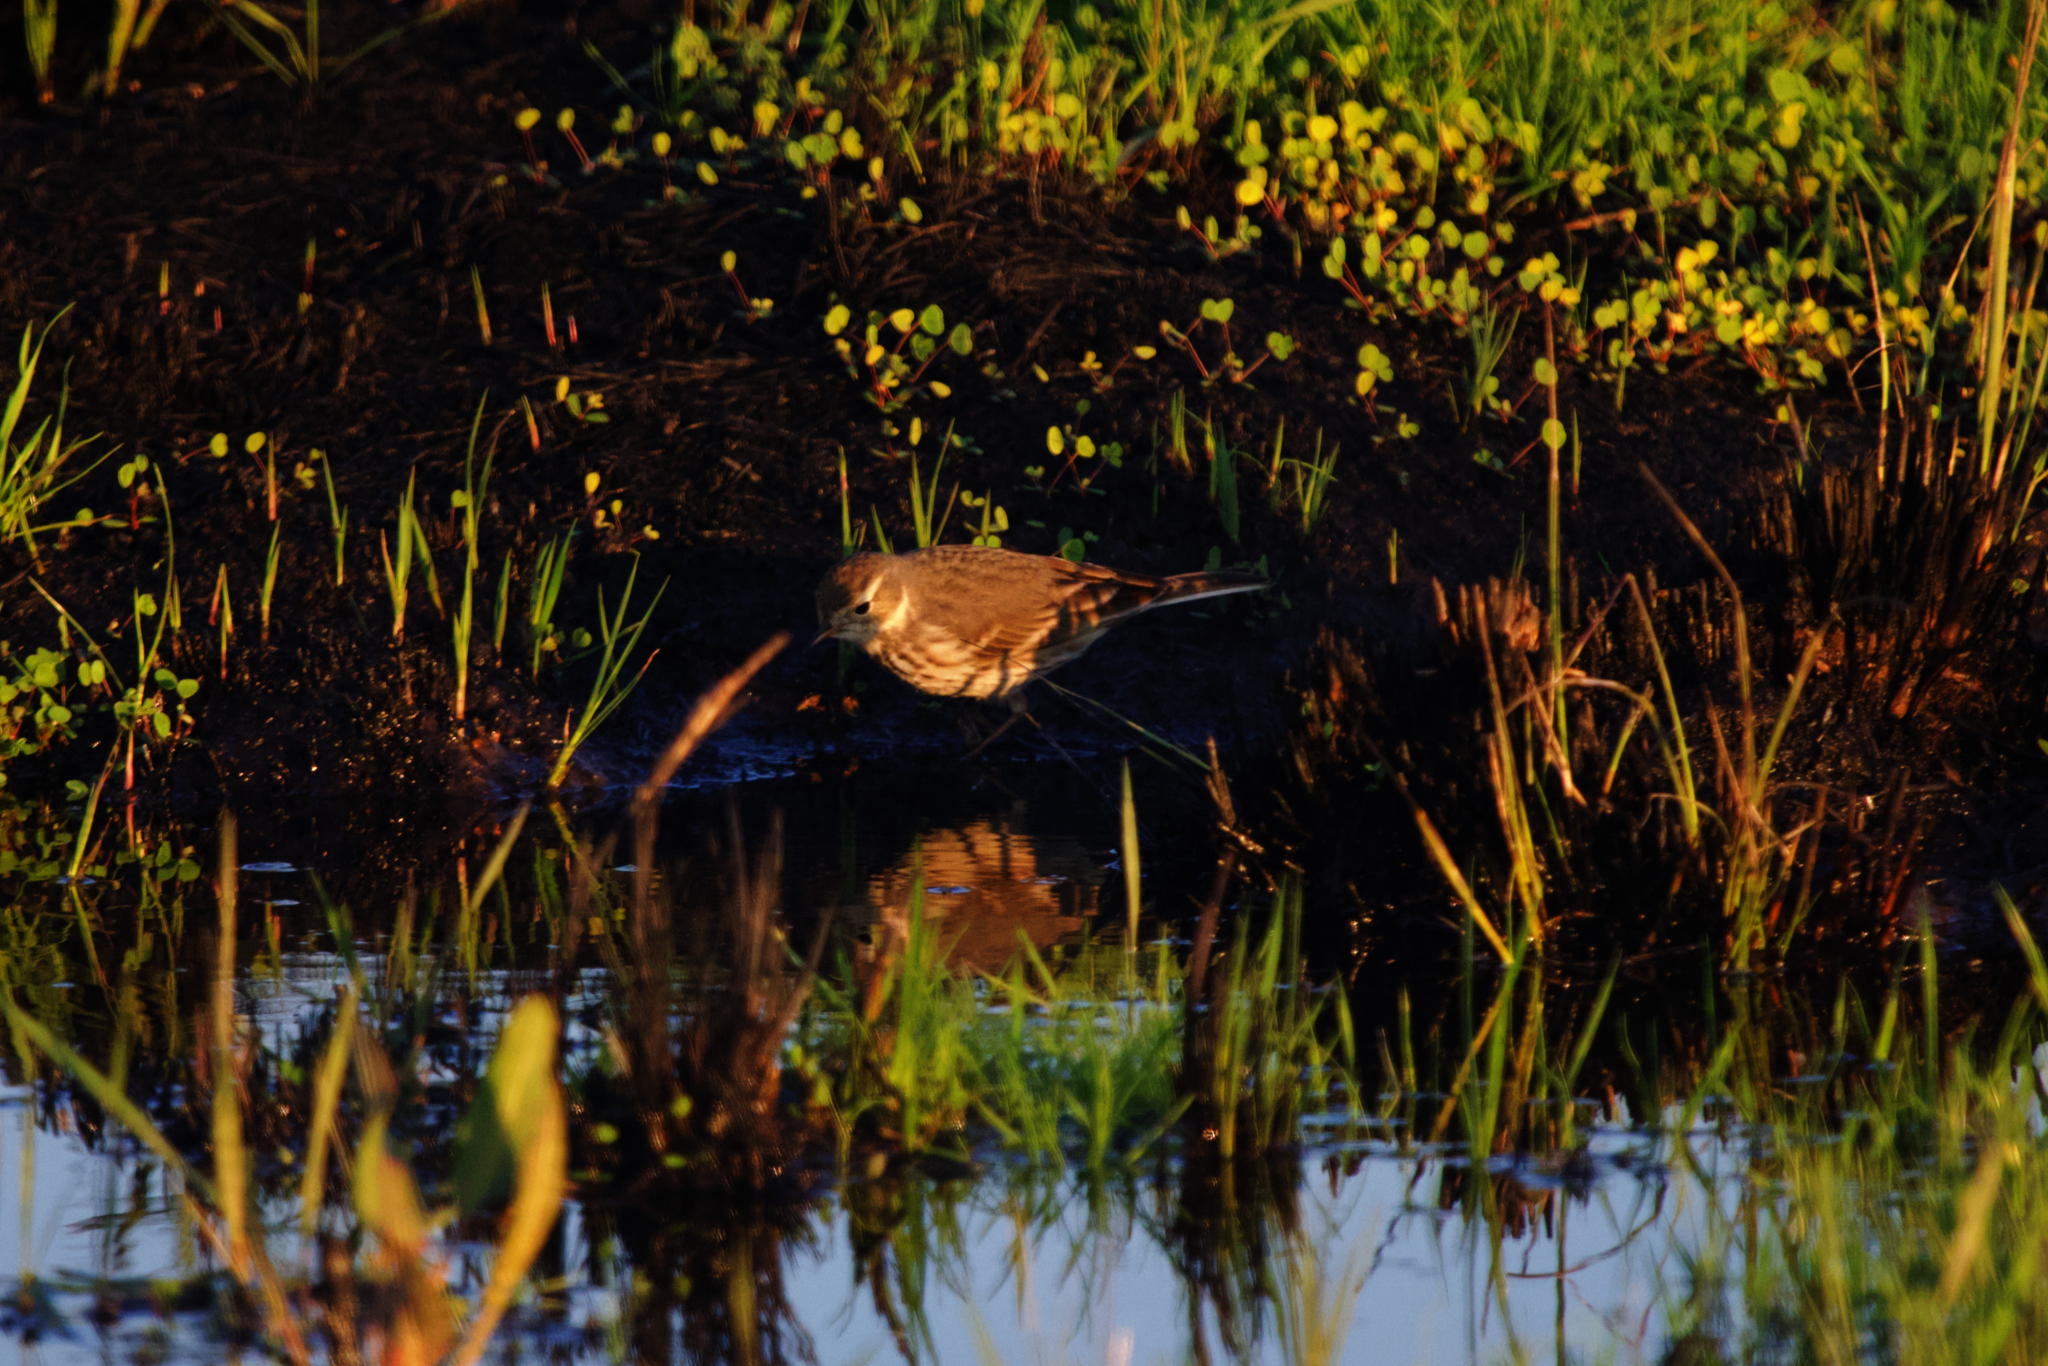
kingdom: Animalia
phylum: Chordata
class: Aves
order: Passeriformes
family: Motacillidae
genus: Anthus
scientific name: Anthus rubescens
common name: Buff-bellied pipit
